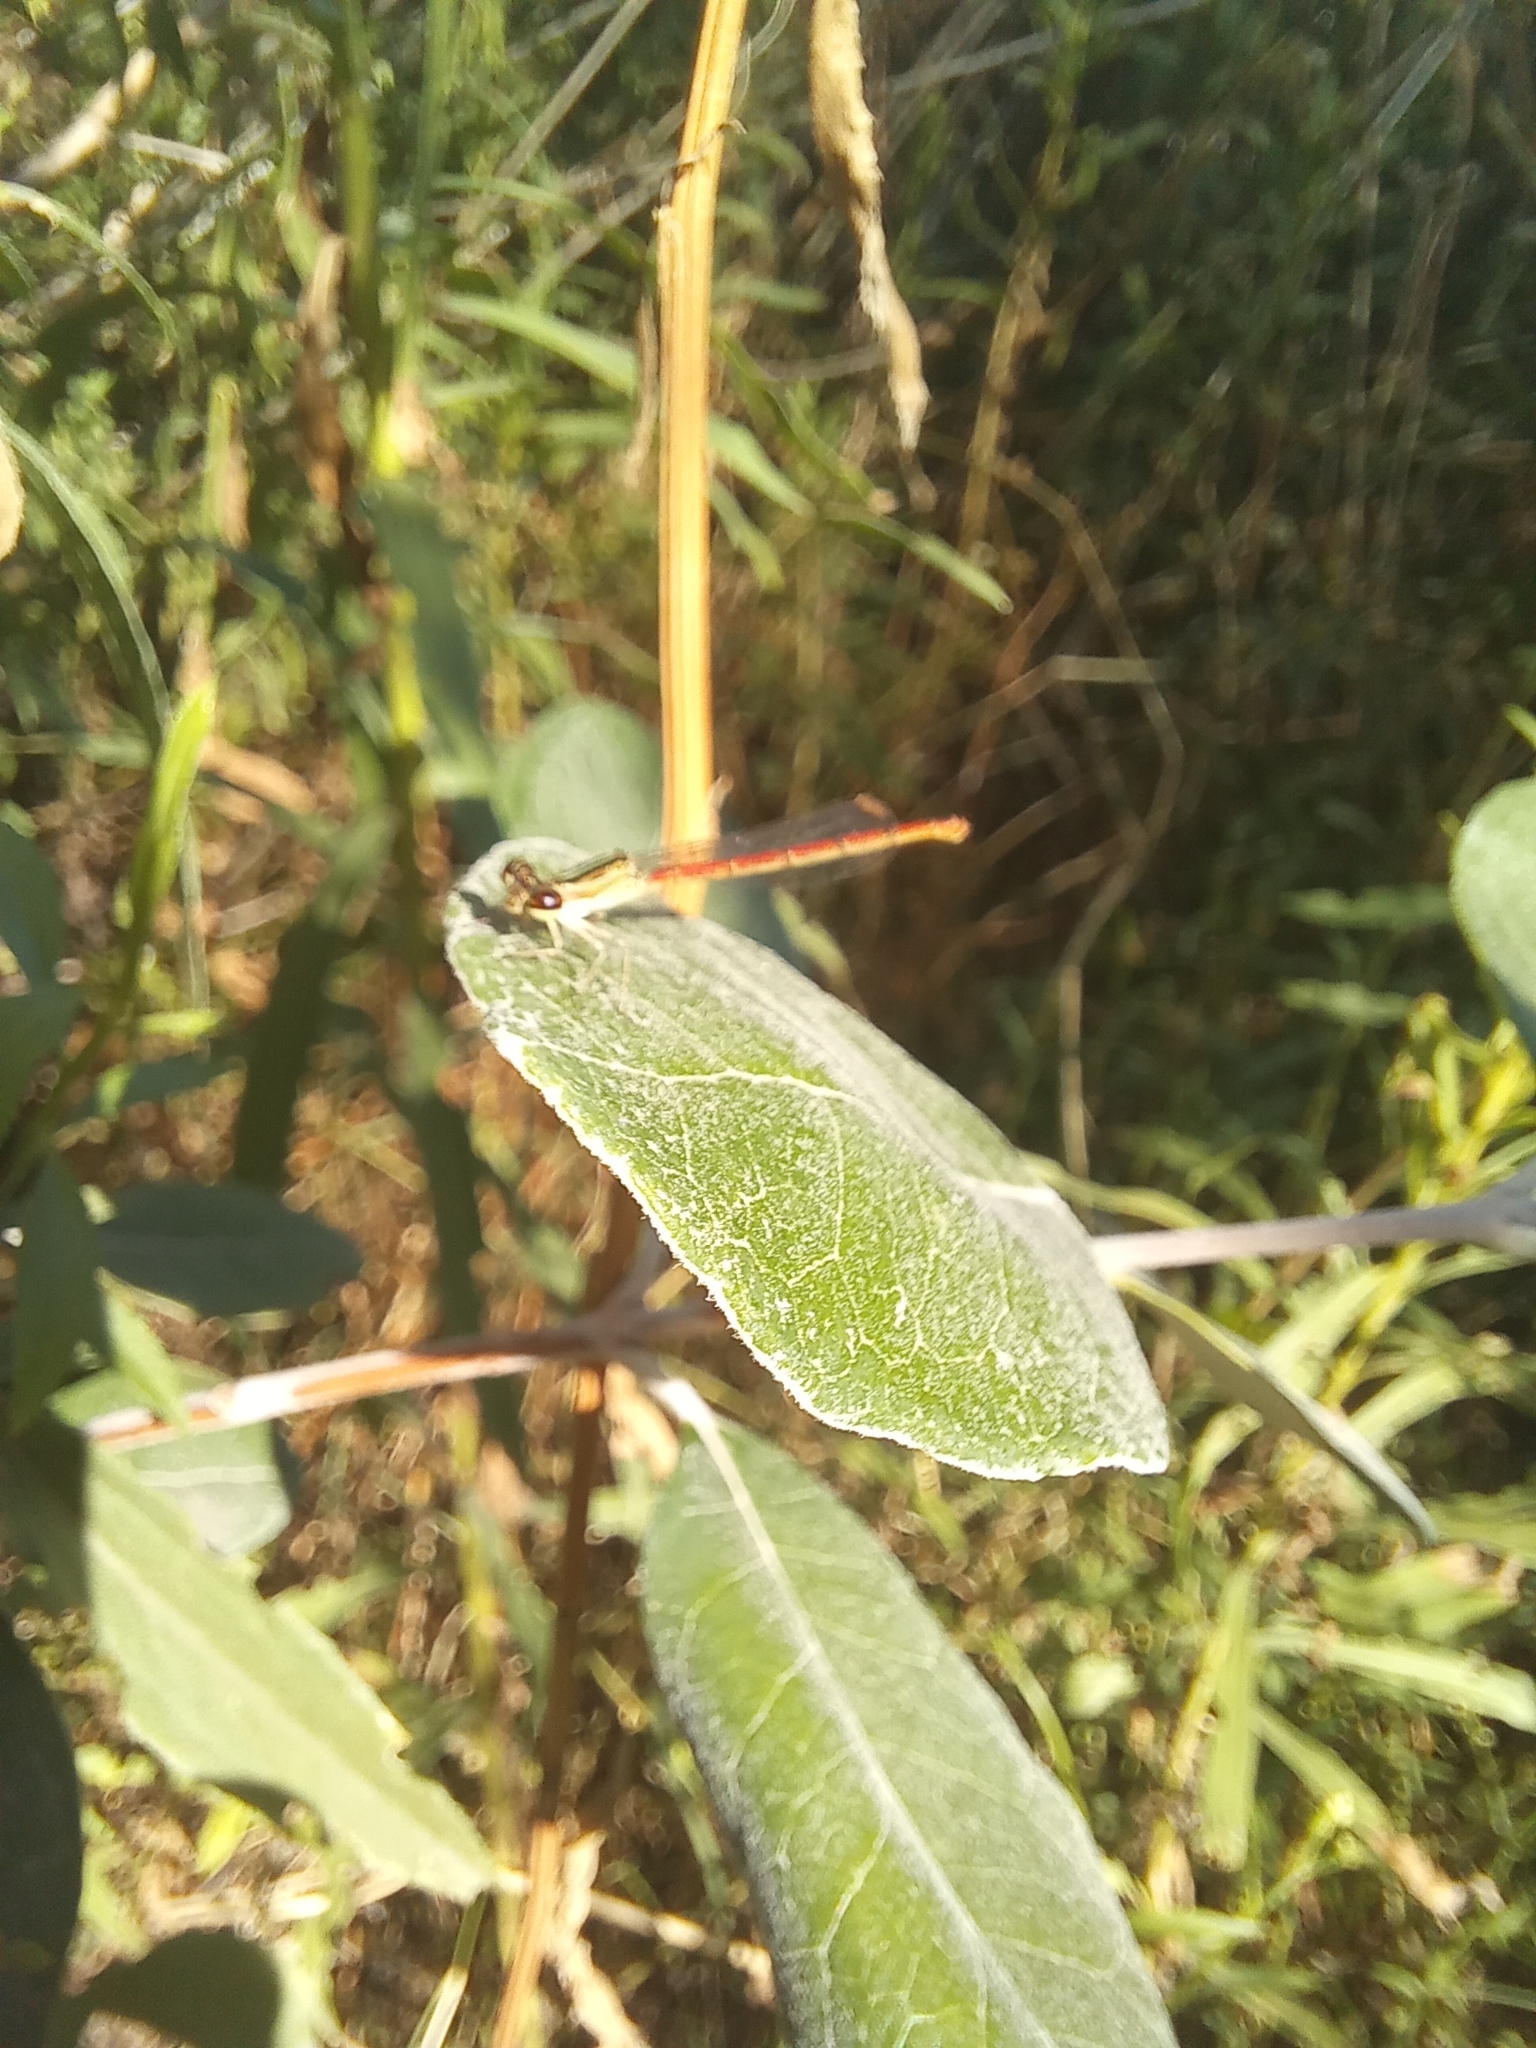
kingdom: Animalia
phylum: Arthropoda
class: Insecta
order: Odonata
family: Coenagrionidae
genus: Telebasis
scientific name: Telebasis willinki
